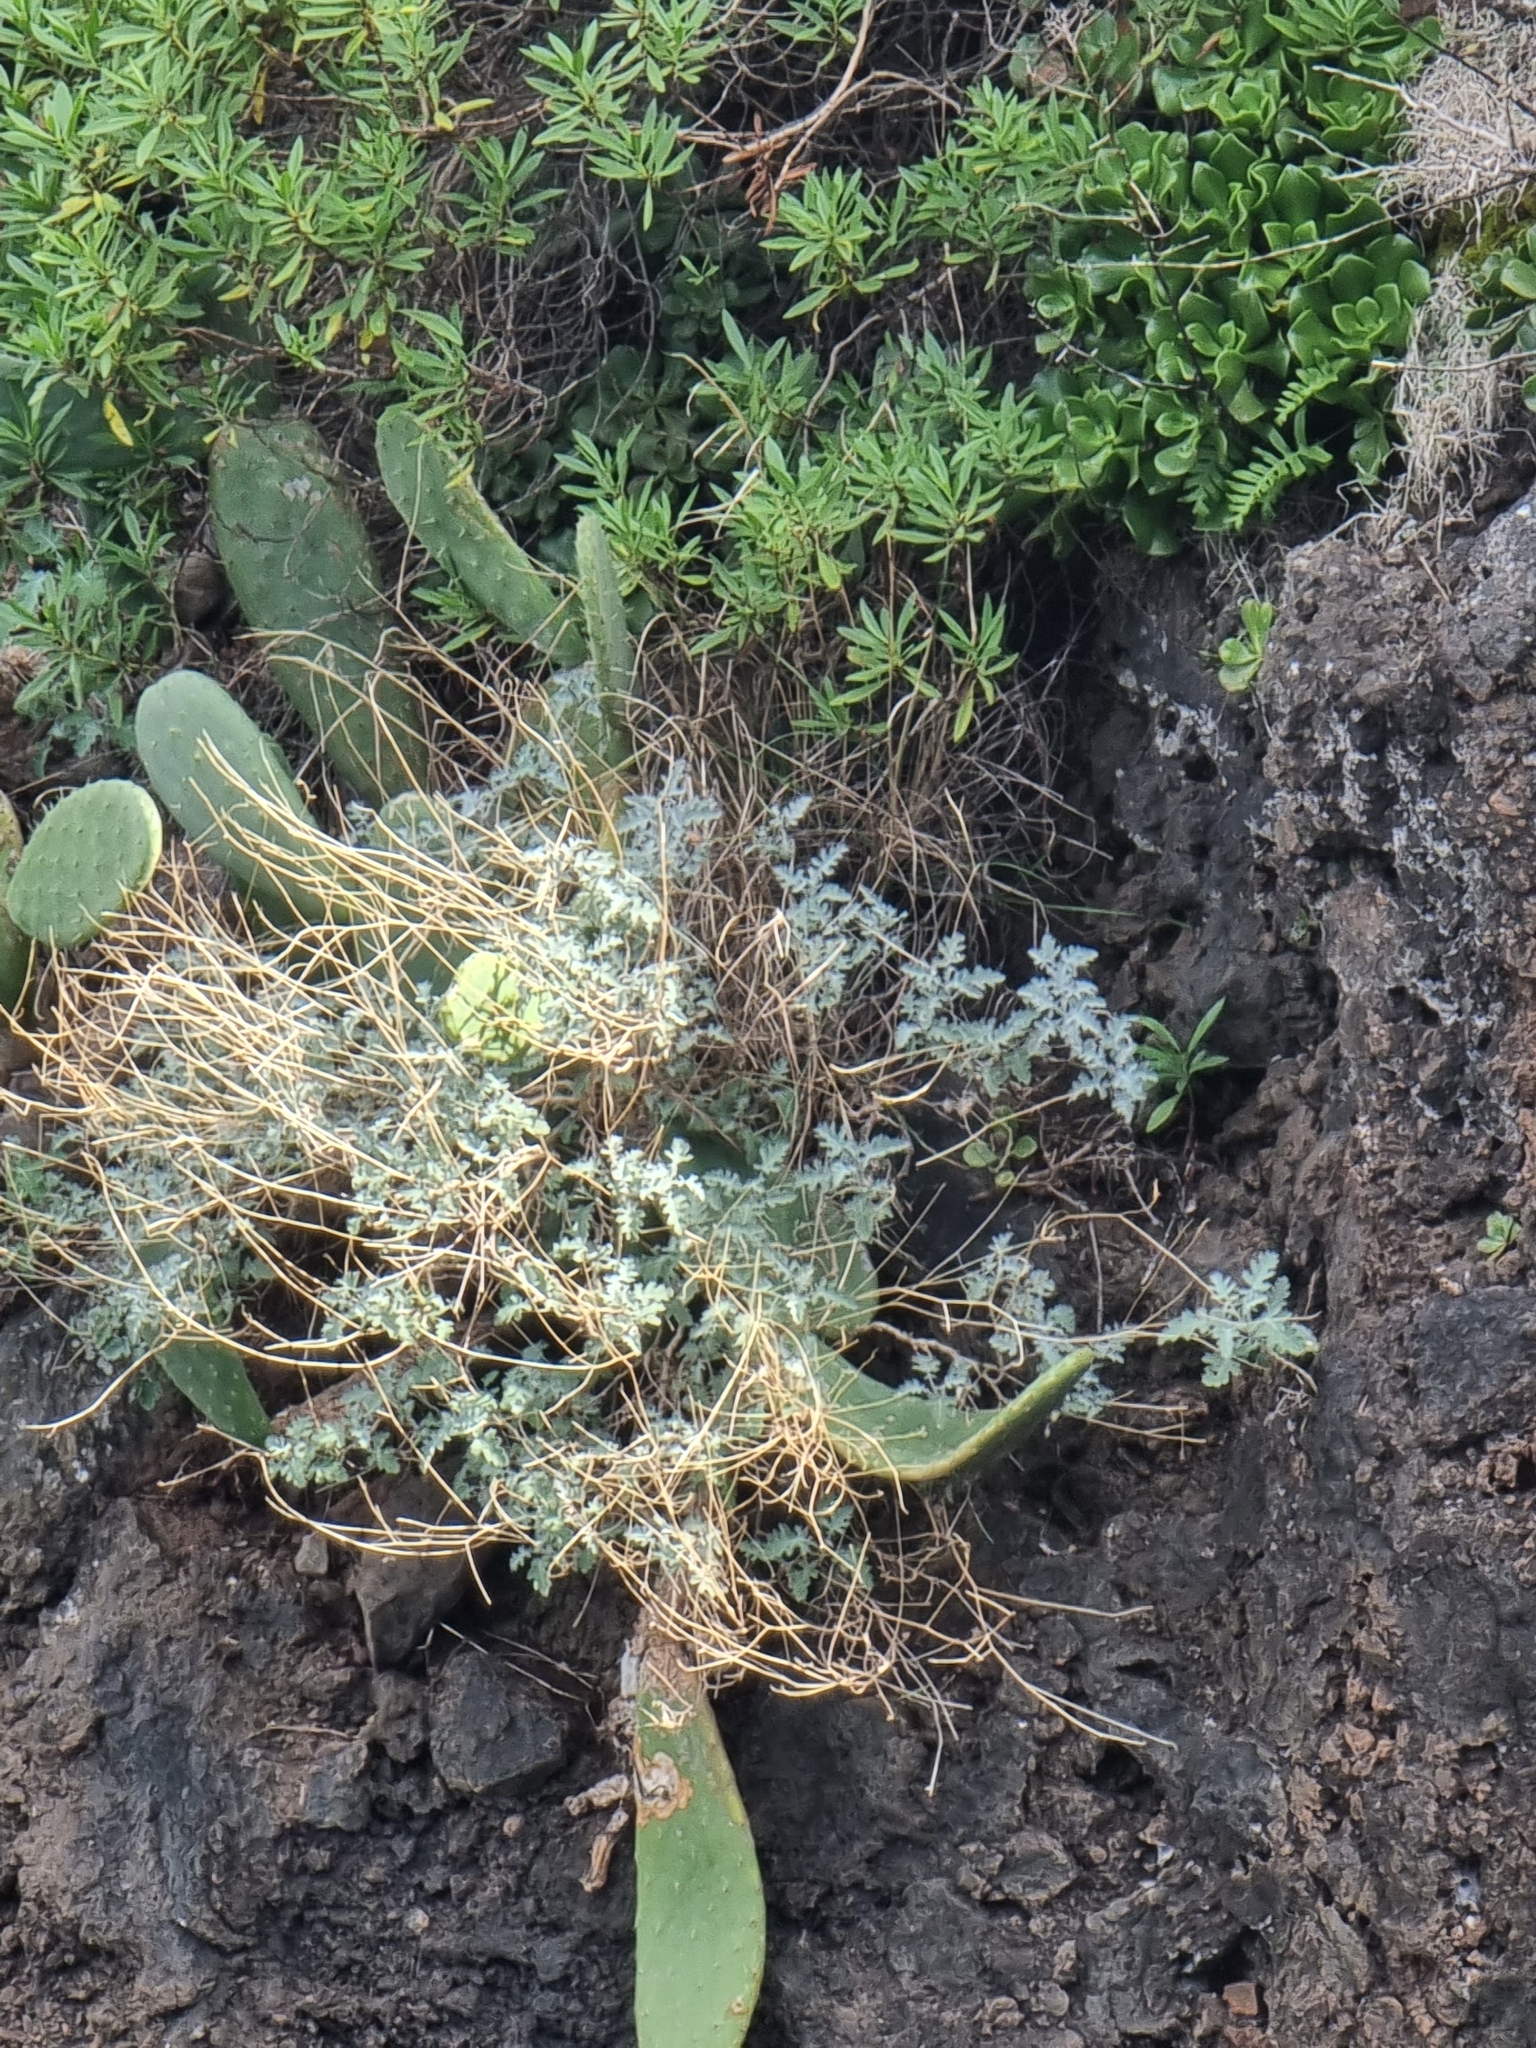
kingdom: Plantae
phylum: Tracheophyta
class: Magnoliopsida
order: Brassicales
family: Brassicaceae
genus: Crambe
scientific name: Crambe fruticosa
